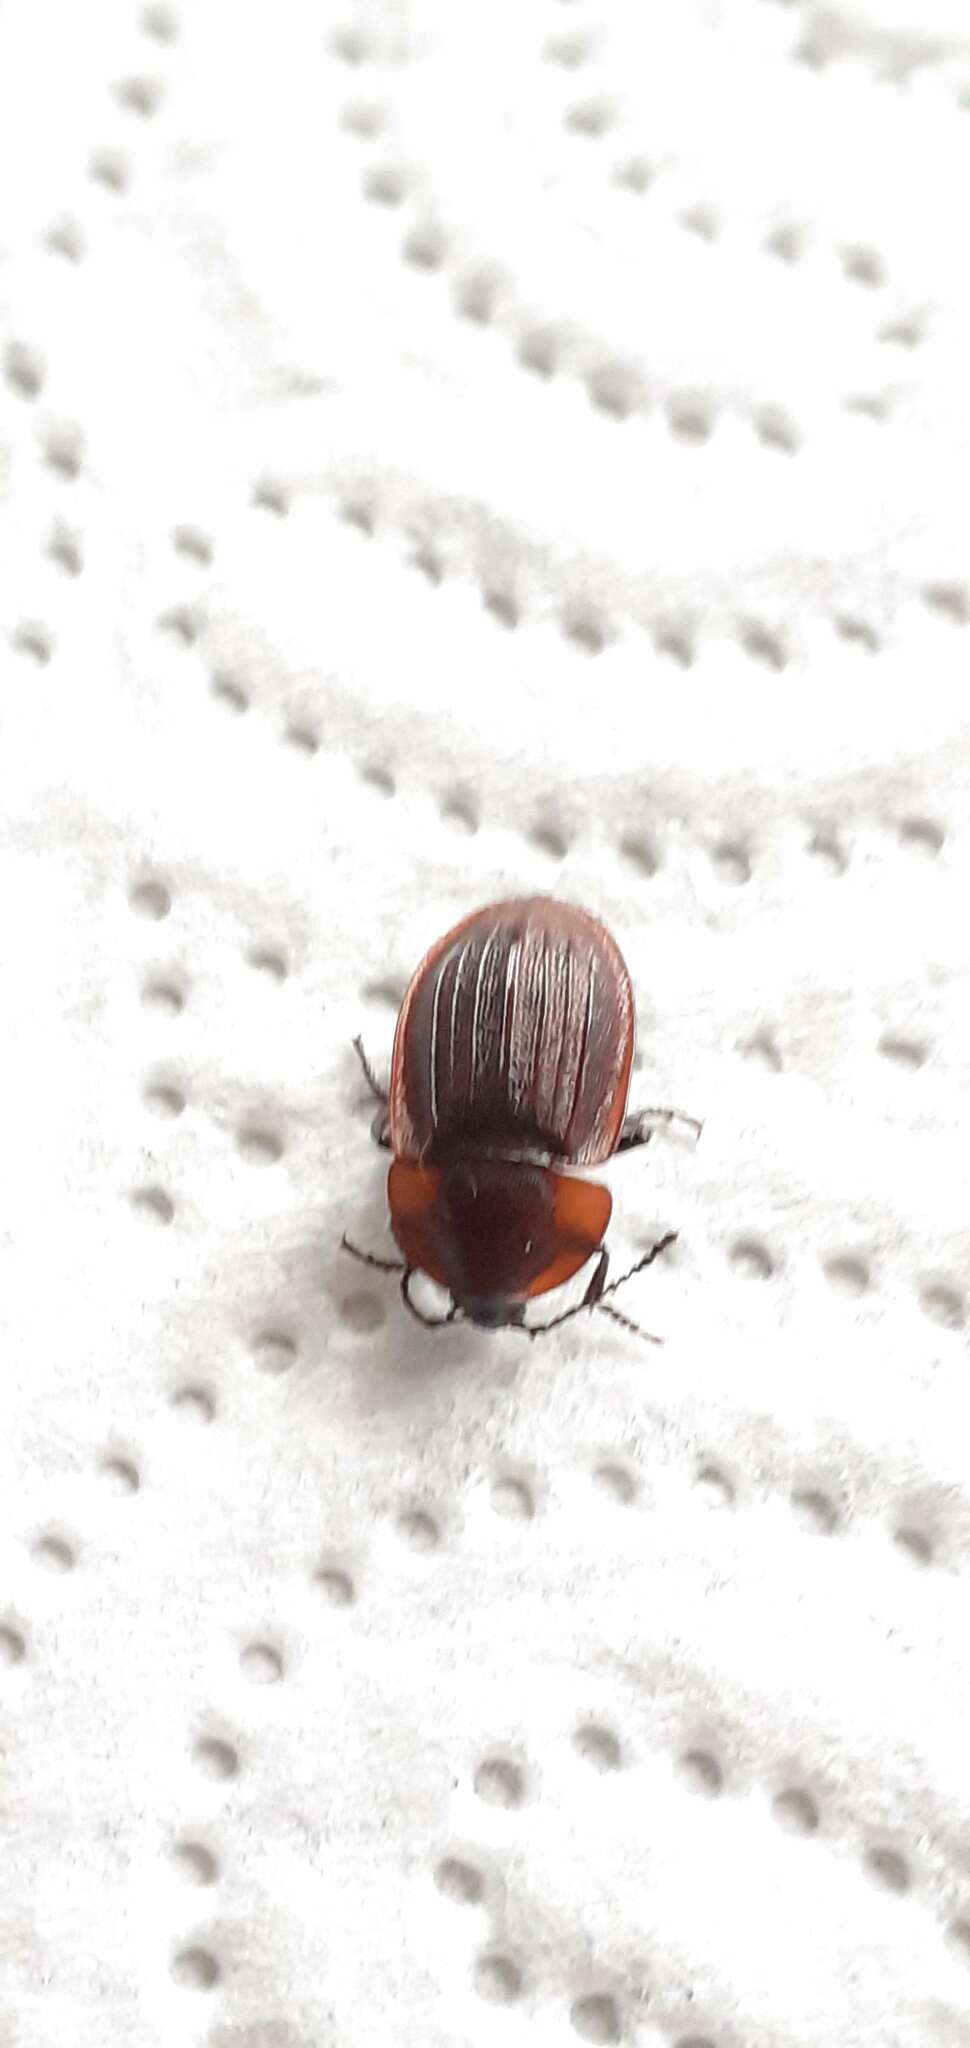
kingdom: Animalia
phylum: Arthropoda
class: Insecta
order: Coleoptera
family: Staphylinidae
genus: Silpha
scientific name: Silpha atrata
